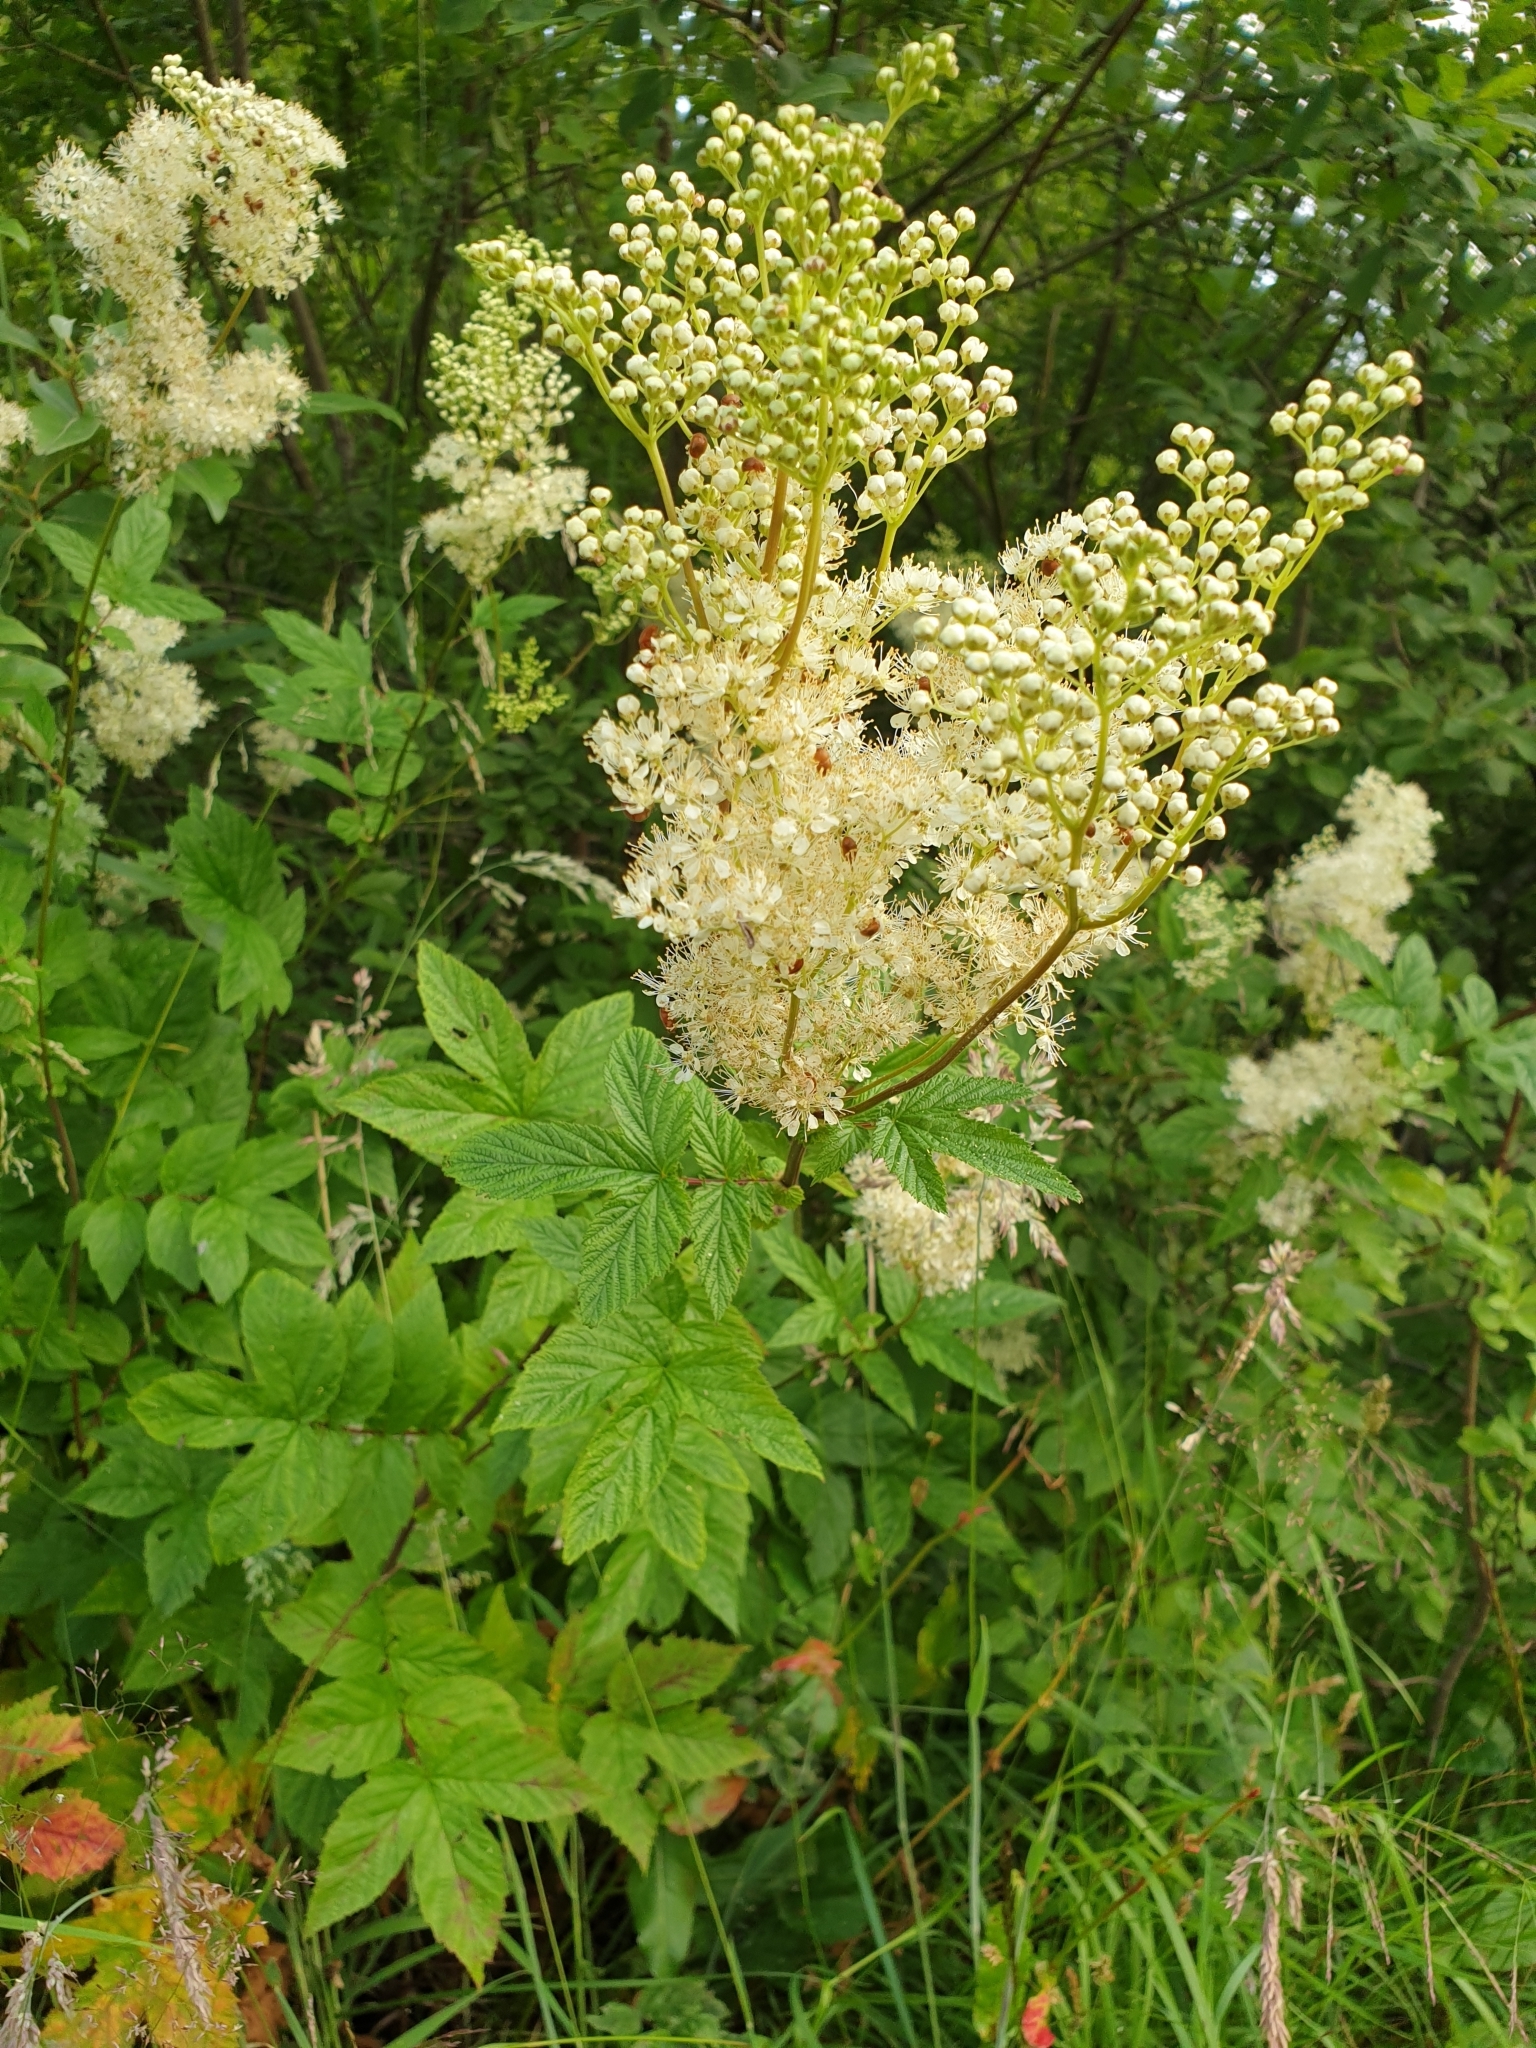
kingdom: Plantae
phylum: Tracheophyta
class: Magnoliopsida
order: Rosales
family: Rosaceae
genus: Filipendula
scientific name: Filipendula ulmaria
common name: Meadowsweet
